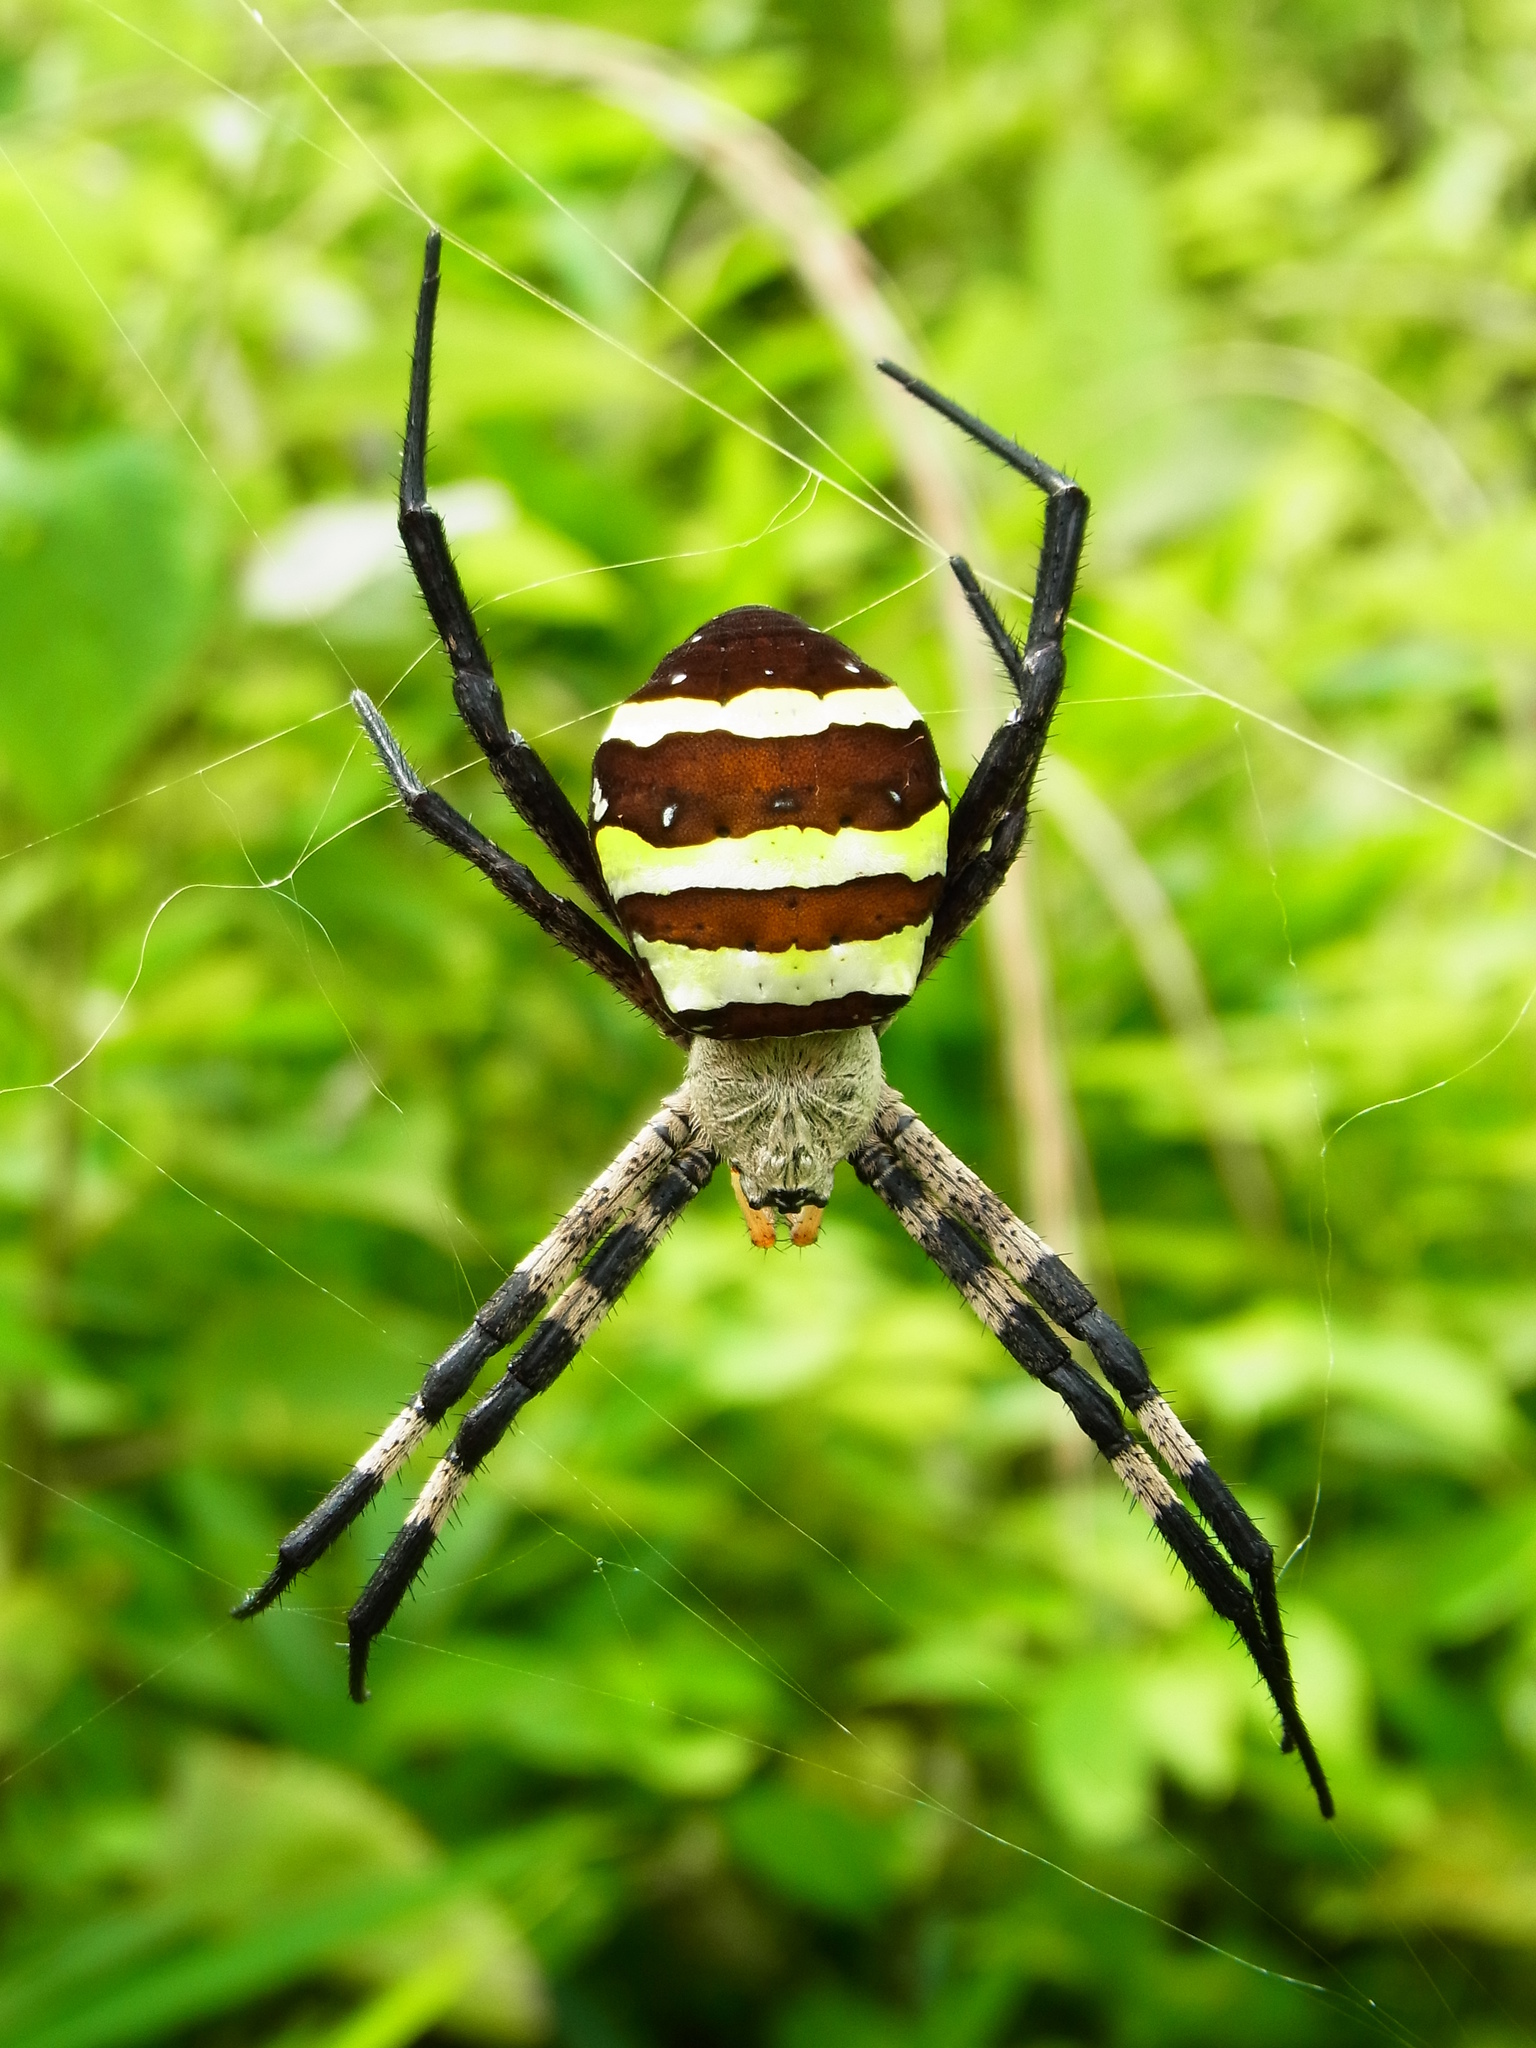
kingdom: Animalia
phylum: Arthropoda
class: Arachnida
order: Araneae
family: Araneidae
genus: Argiope
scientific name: Argiope amoena
